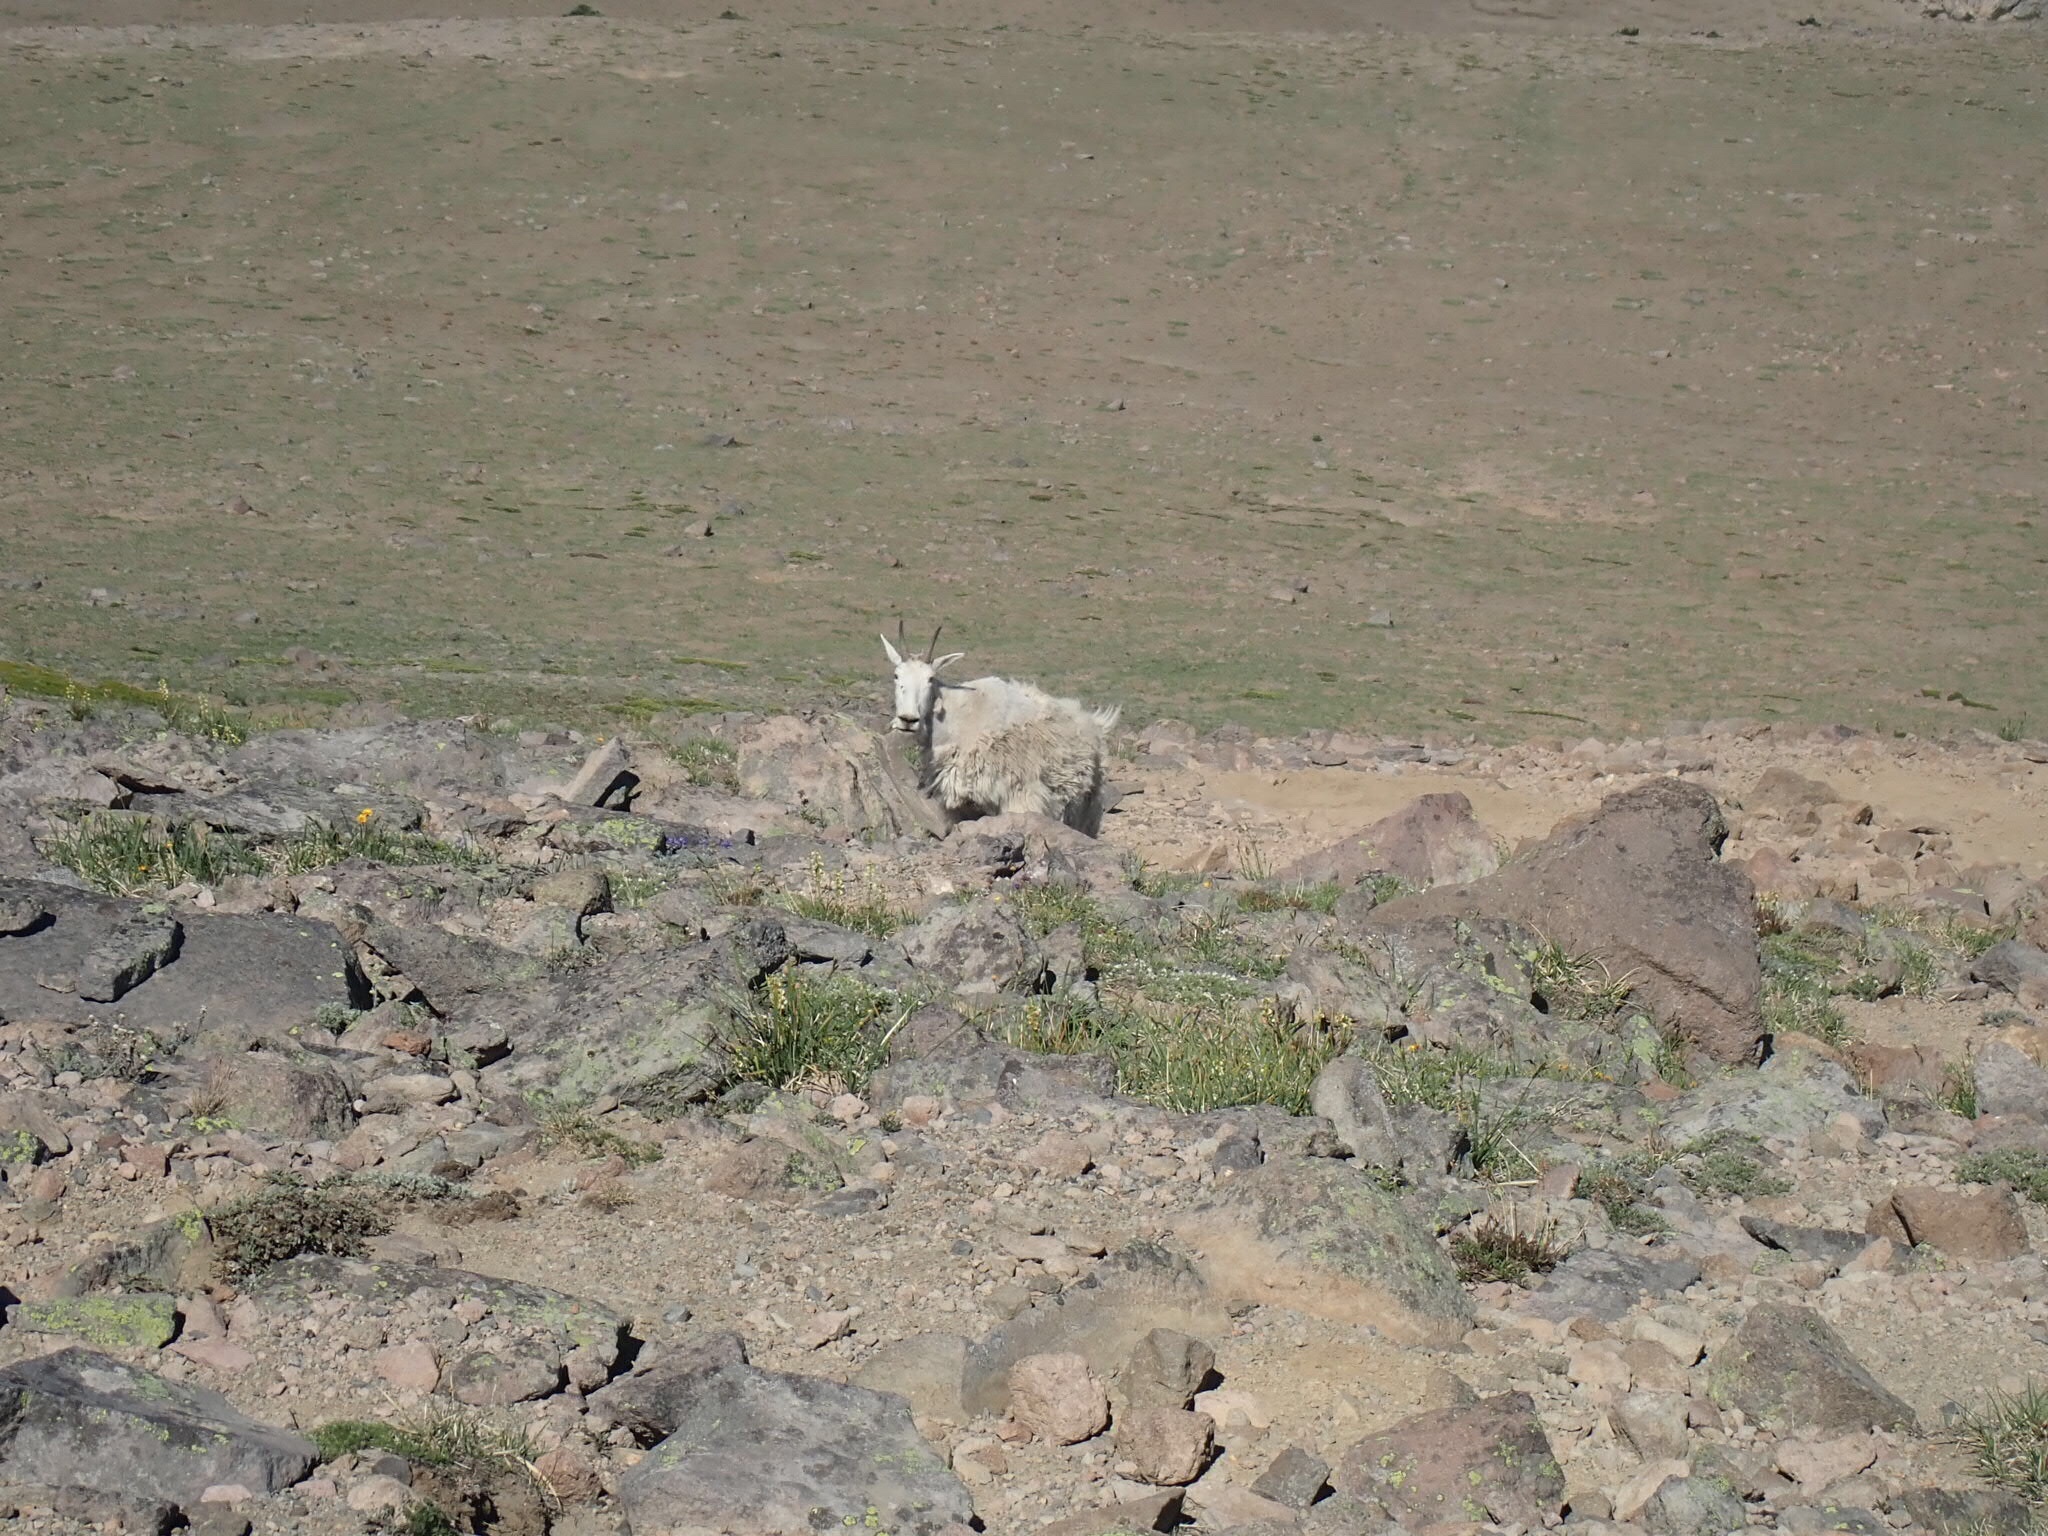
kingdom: Animalia
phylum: Chordata
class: Mammalia
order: Artiodactyla
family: Bovidae
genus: Oreamnos
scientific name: Oreamnos americanus
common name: Mountain goat
